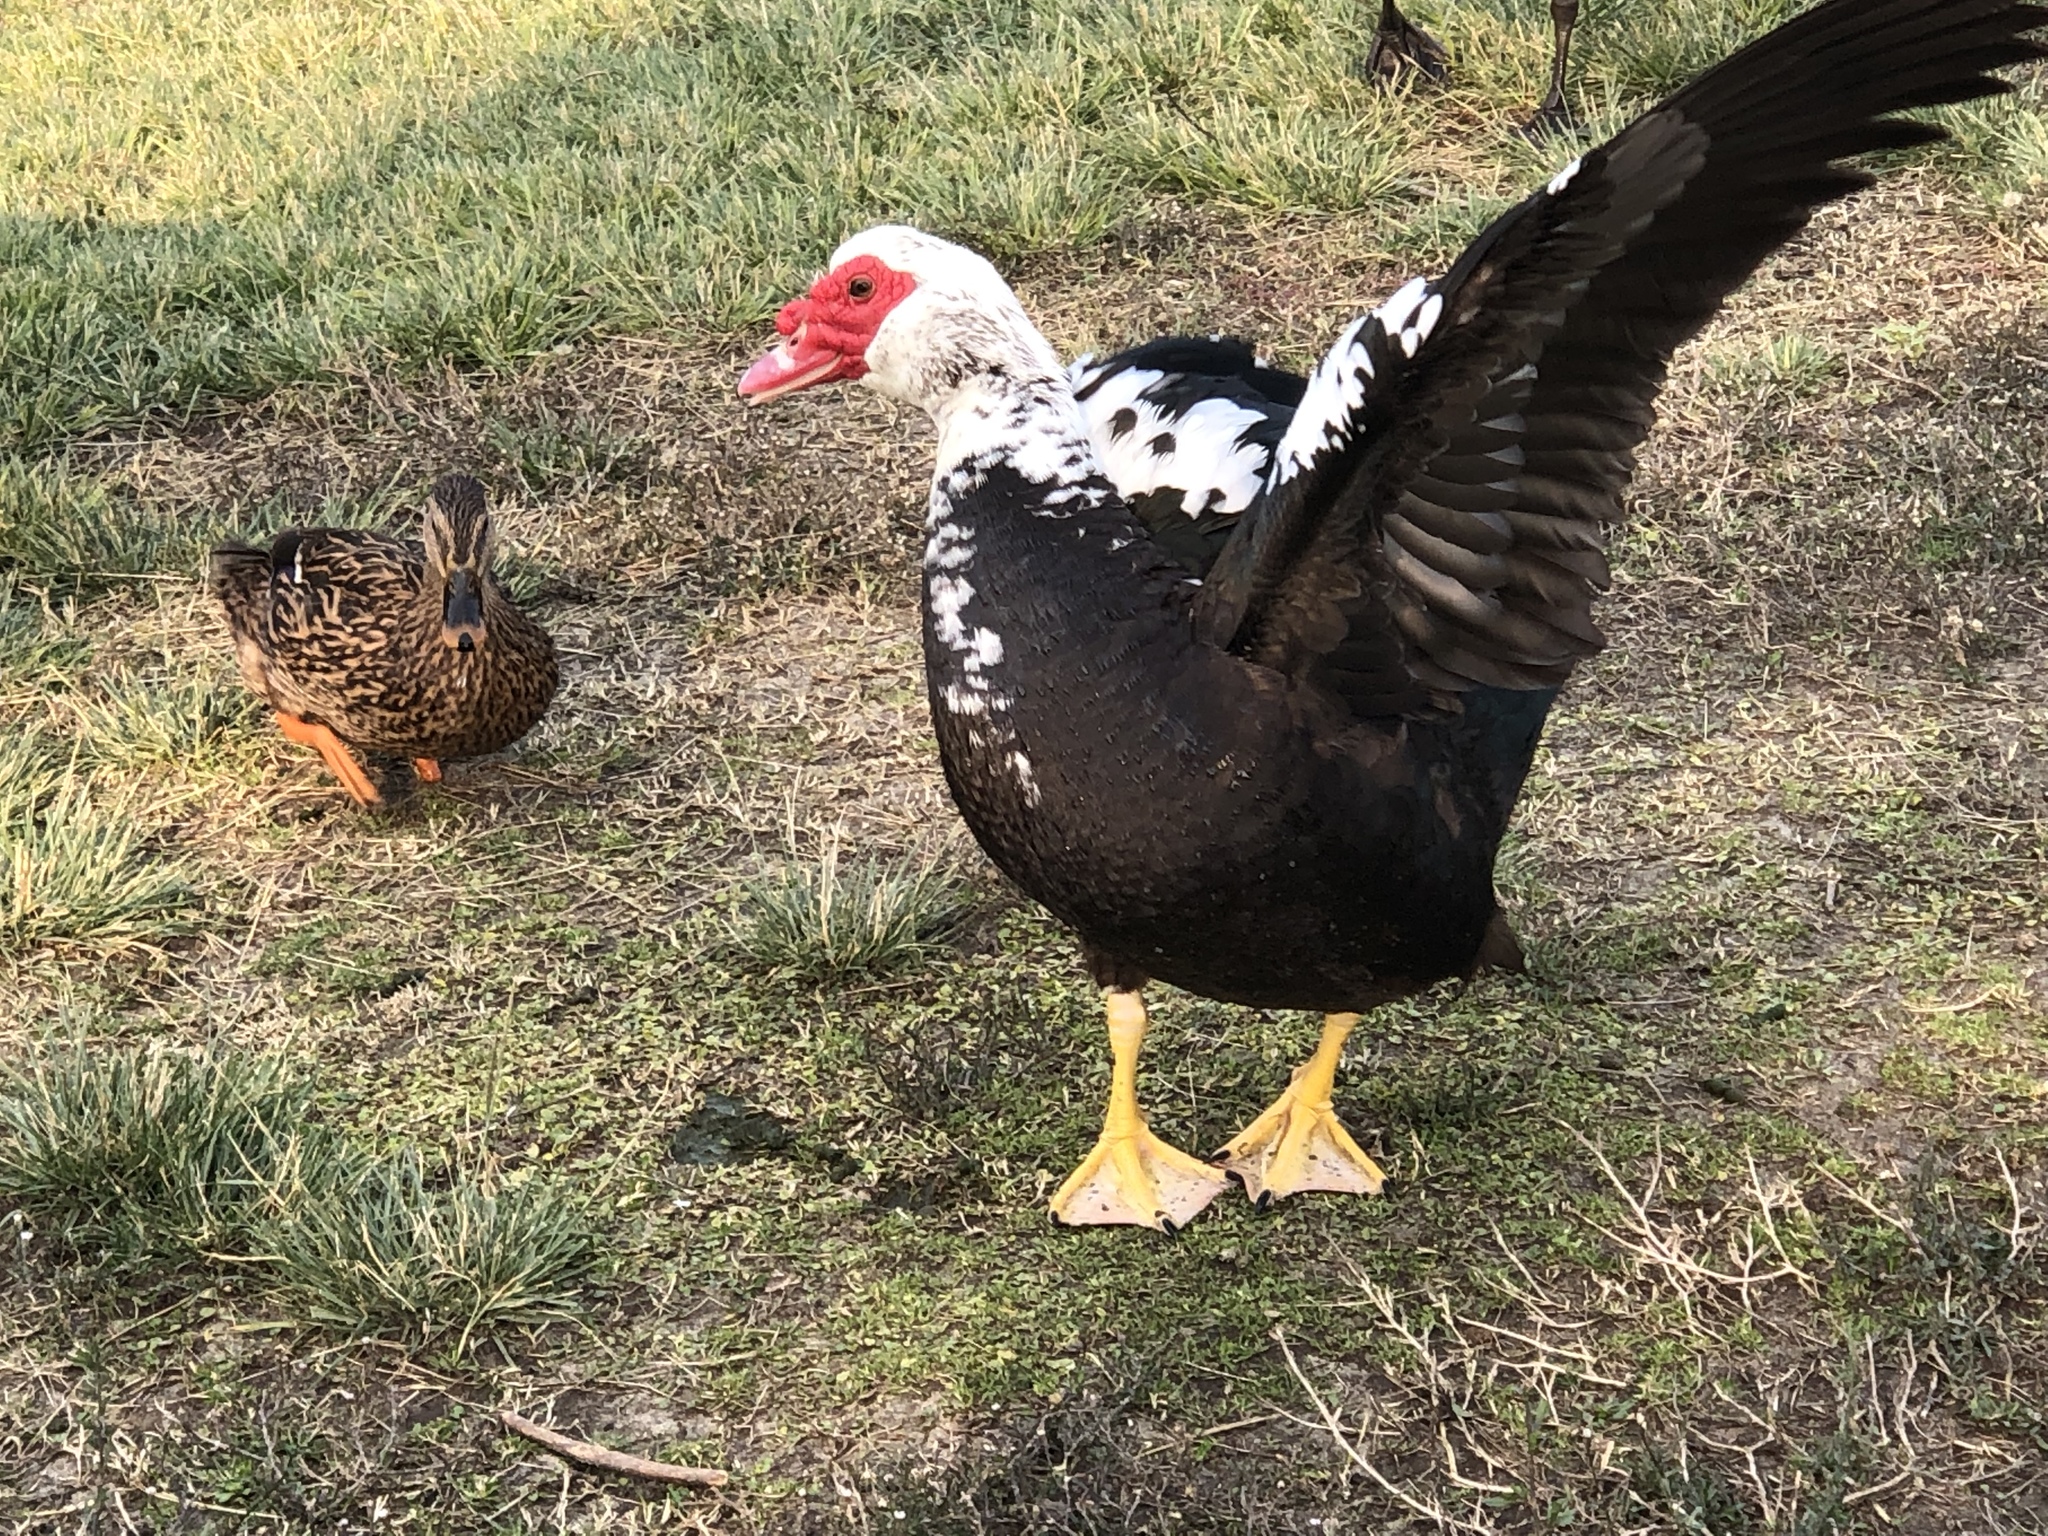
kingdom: Animalia
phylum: Chordata
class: Aves
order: Anseriformes
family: Anatidae
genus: Cairina
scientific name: Cairina moschata
